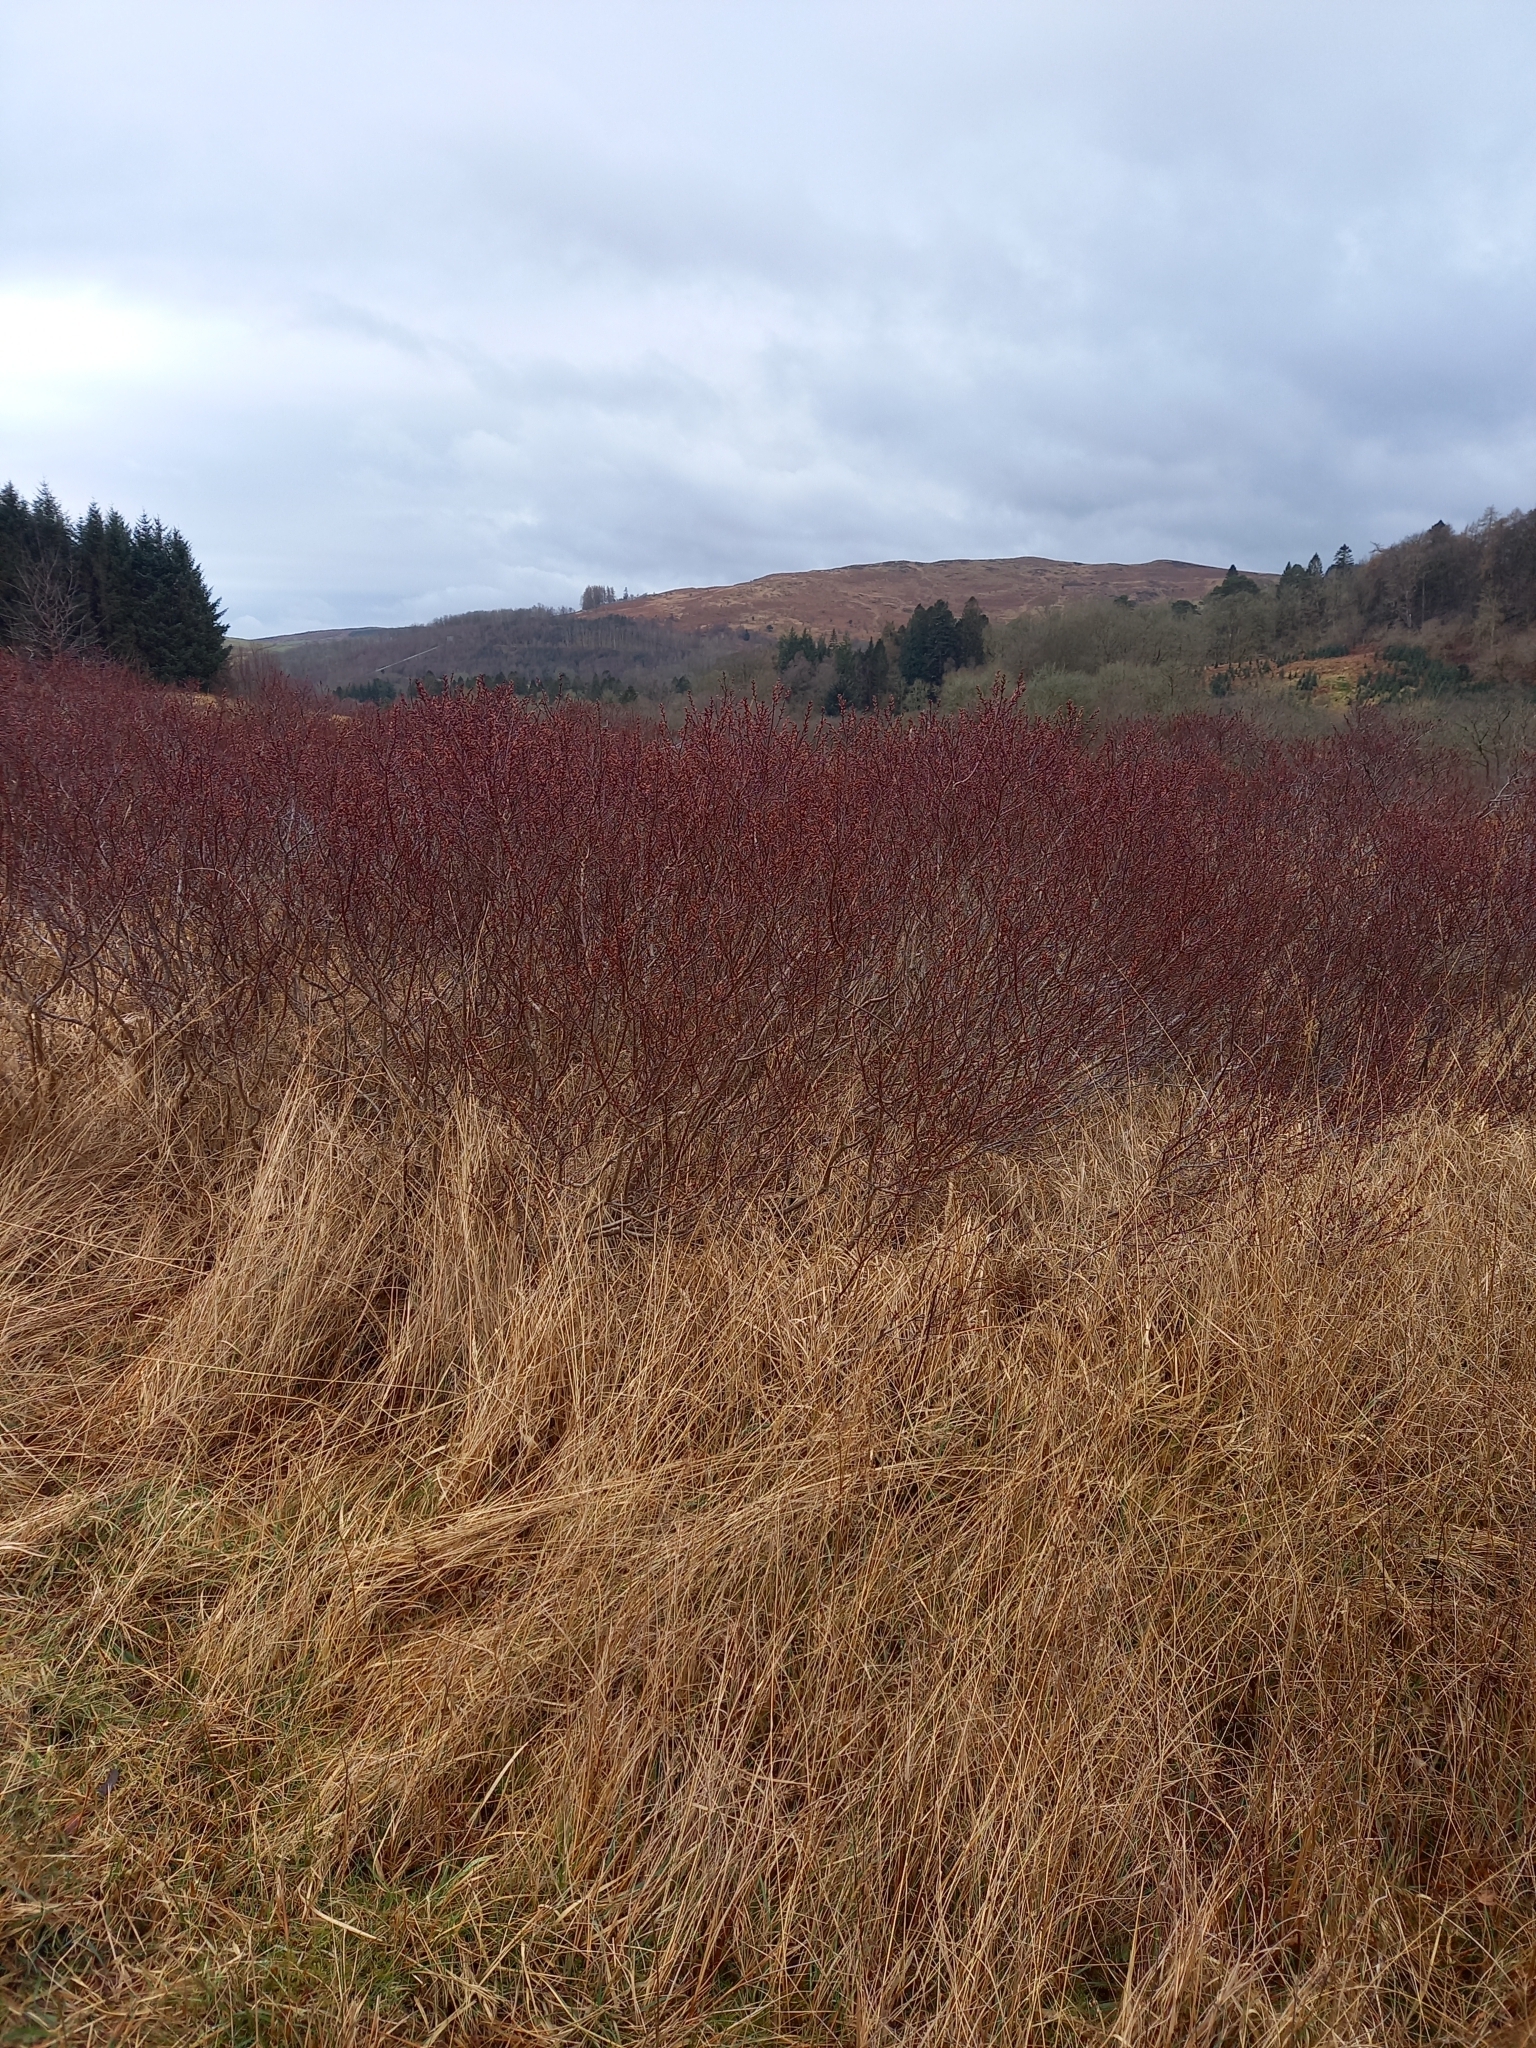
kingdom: Plantae
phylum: Tracheophyta
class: Magnoliopsida
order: Fagales
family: Myricaceae
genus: Myrica
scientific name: Myrica gale
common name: Sweet gale
